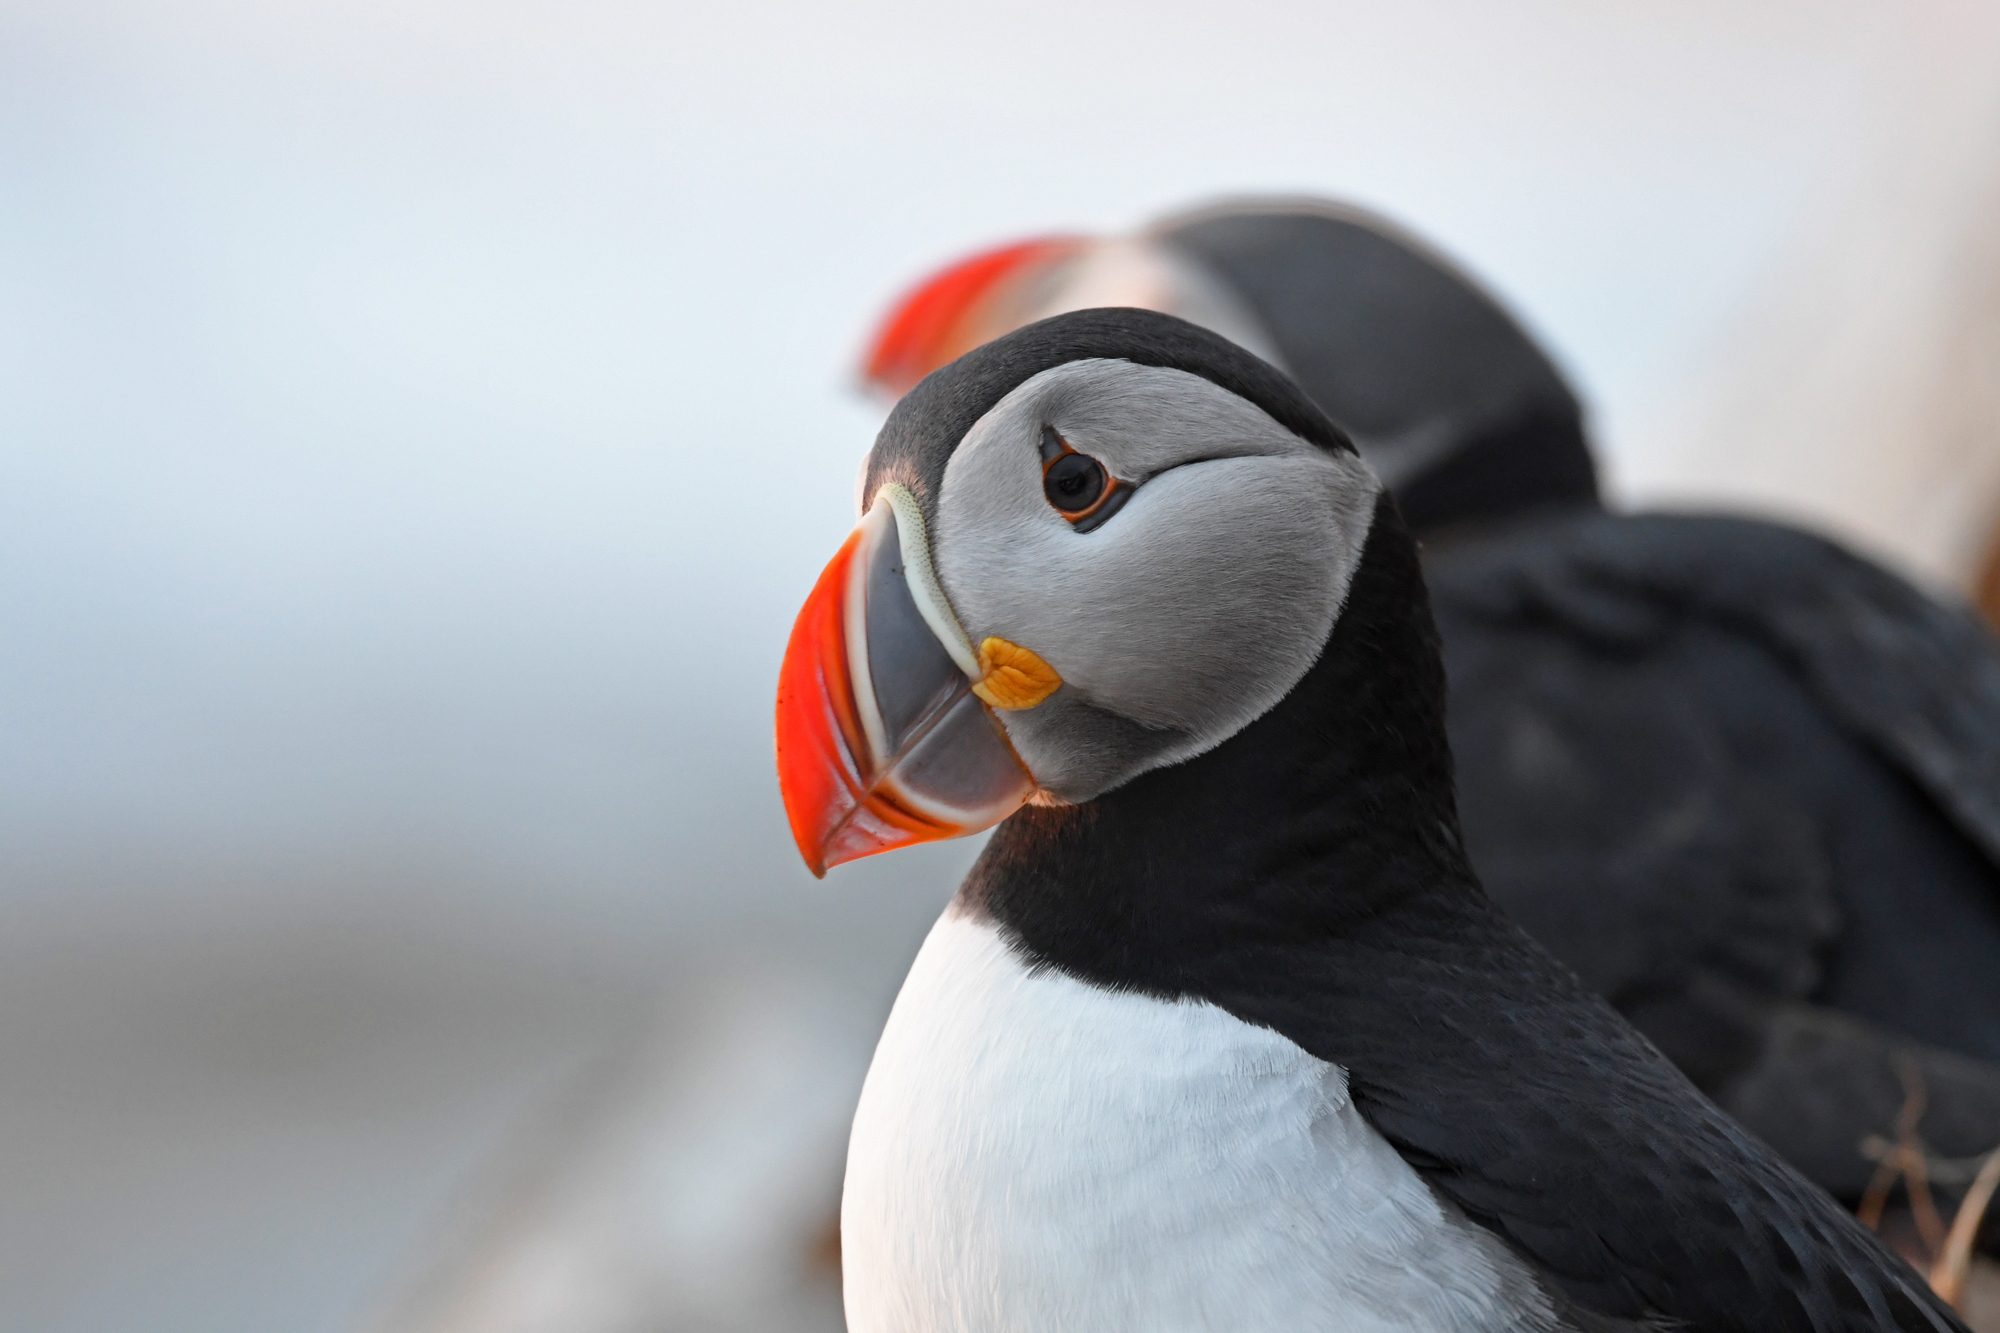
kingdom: Animalia
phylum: Chordata
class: Aves
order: Charadriiformes
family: Alcidae
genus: Fratercula
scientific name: Fratercula arctica
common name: Atlantic puffin
